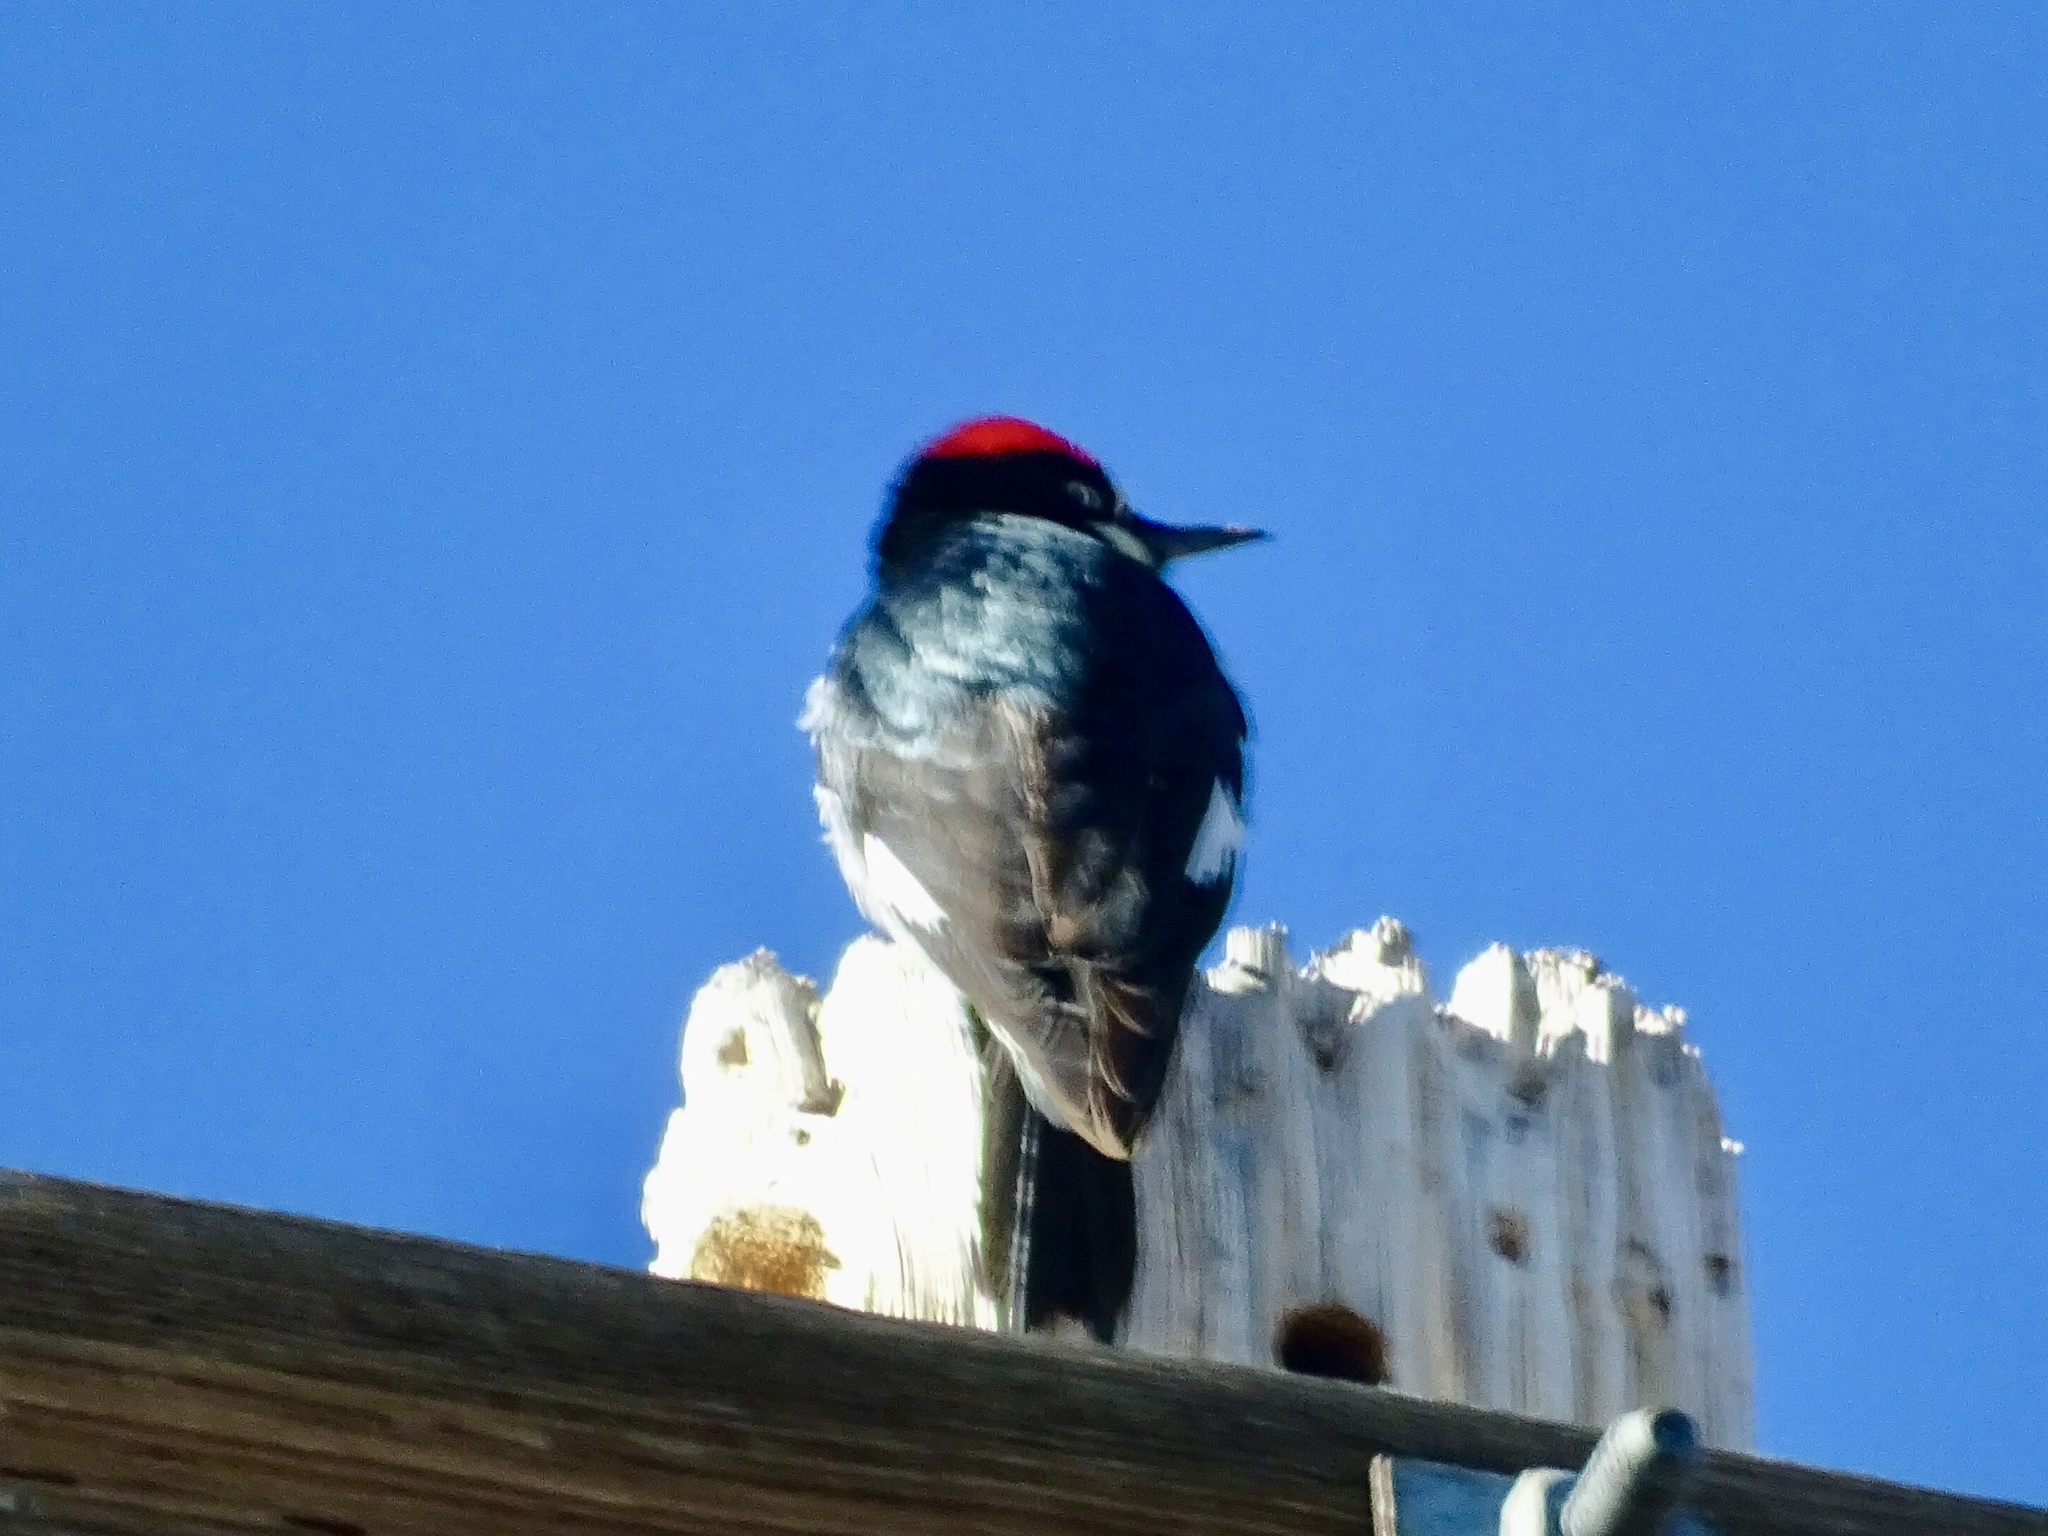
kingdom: Animalia
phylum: Chordata
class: Aves
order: Piciformes
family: Picidae
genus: Melanerpes
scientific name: Melanerpes formicivorus
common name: Acorn woodpecker
